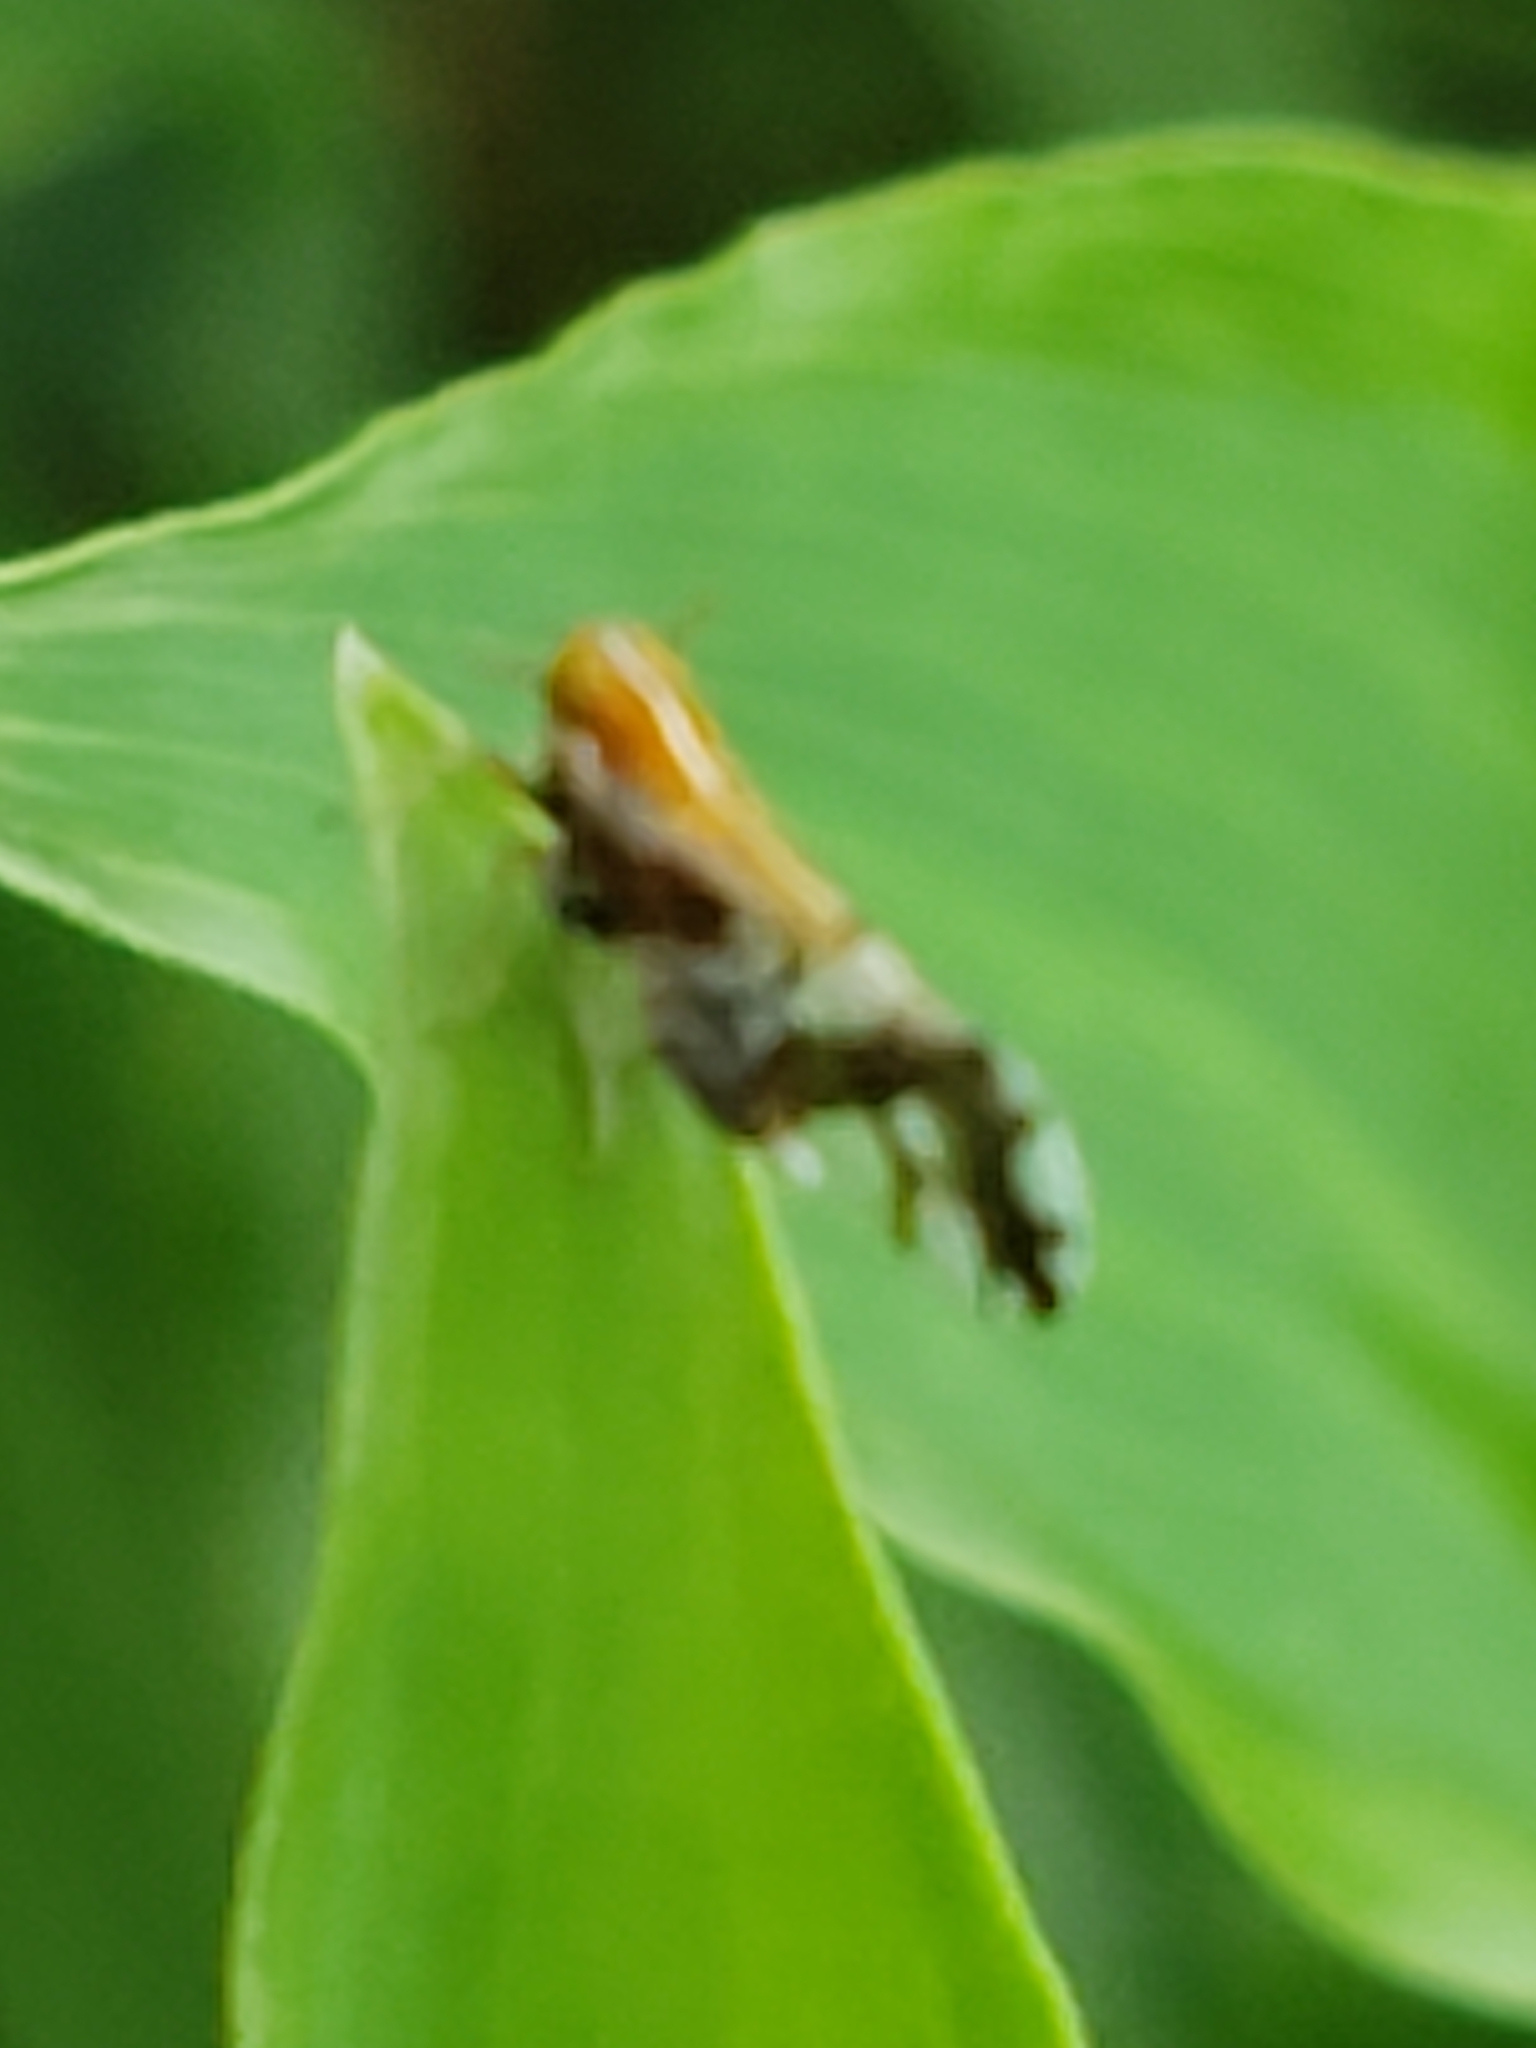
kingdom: Animalia
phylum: Arthropoda
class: Insecta
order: Hemiptera
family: Delphacidae
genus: Liburniella
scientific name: Liburniella ornata
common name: Ornate planthopper
